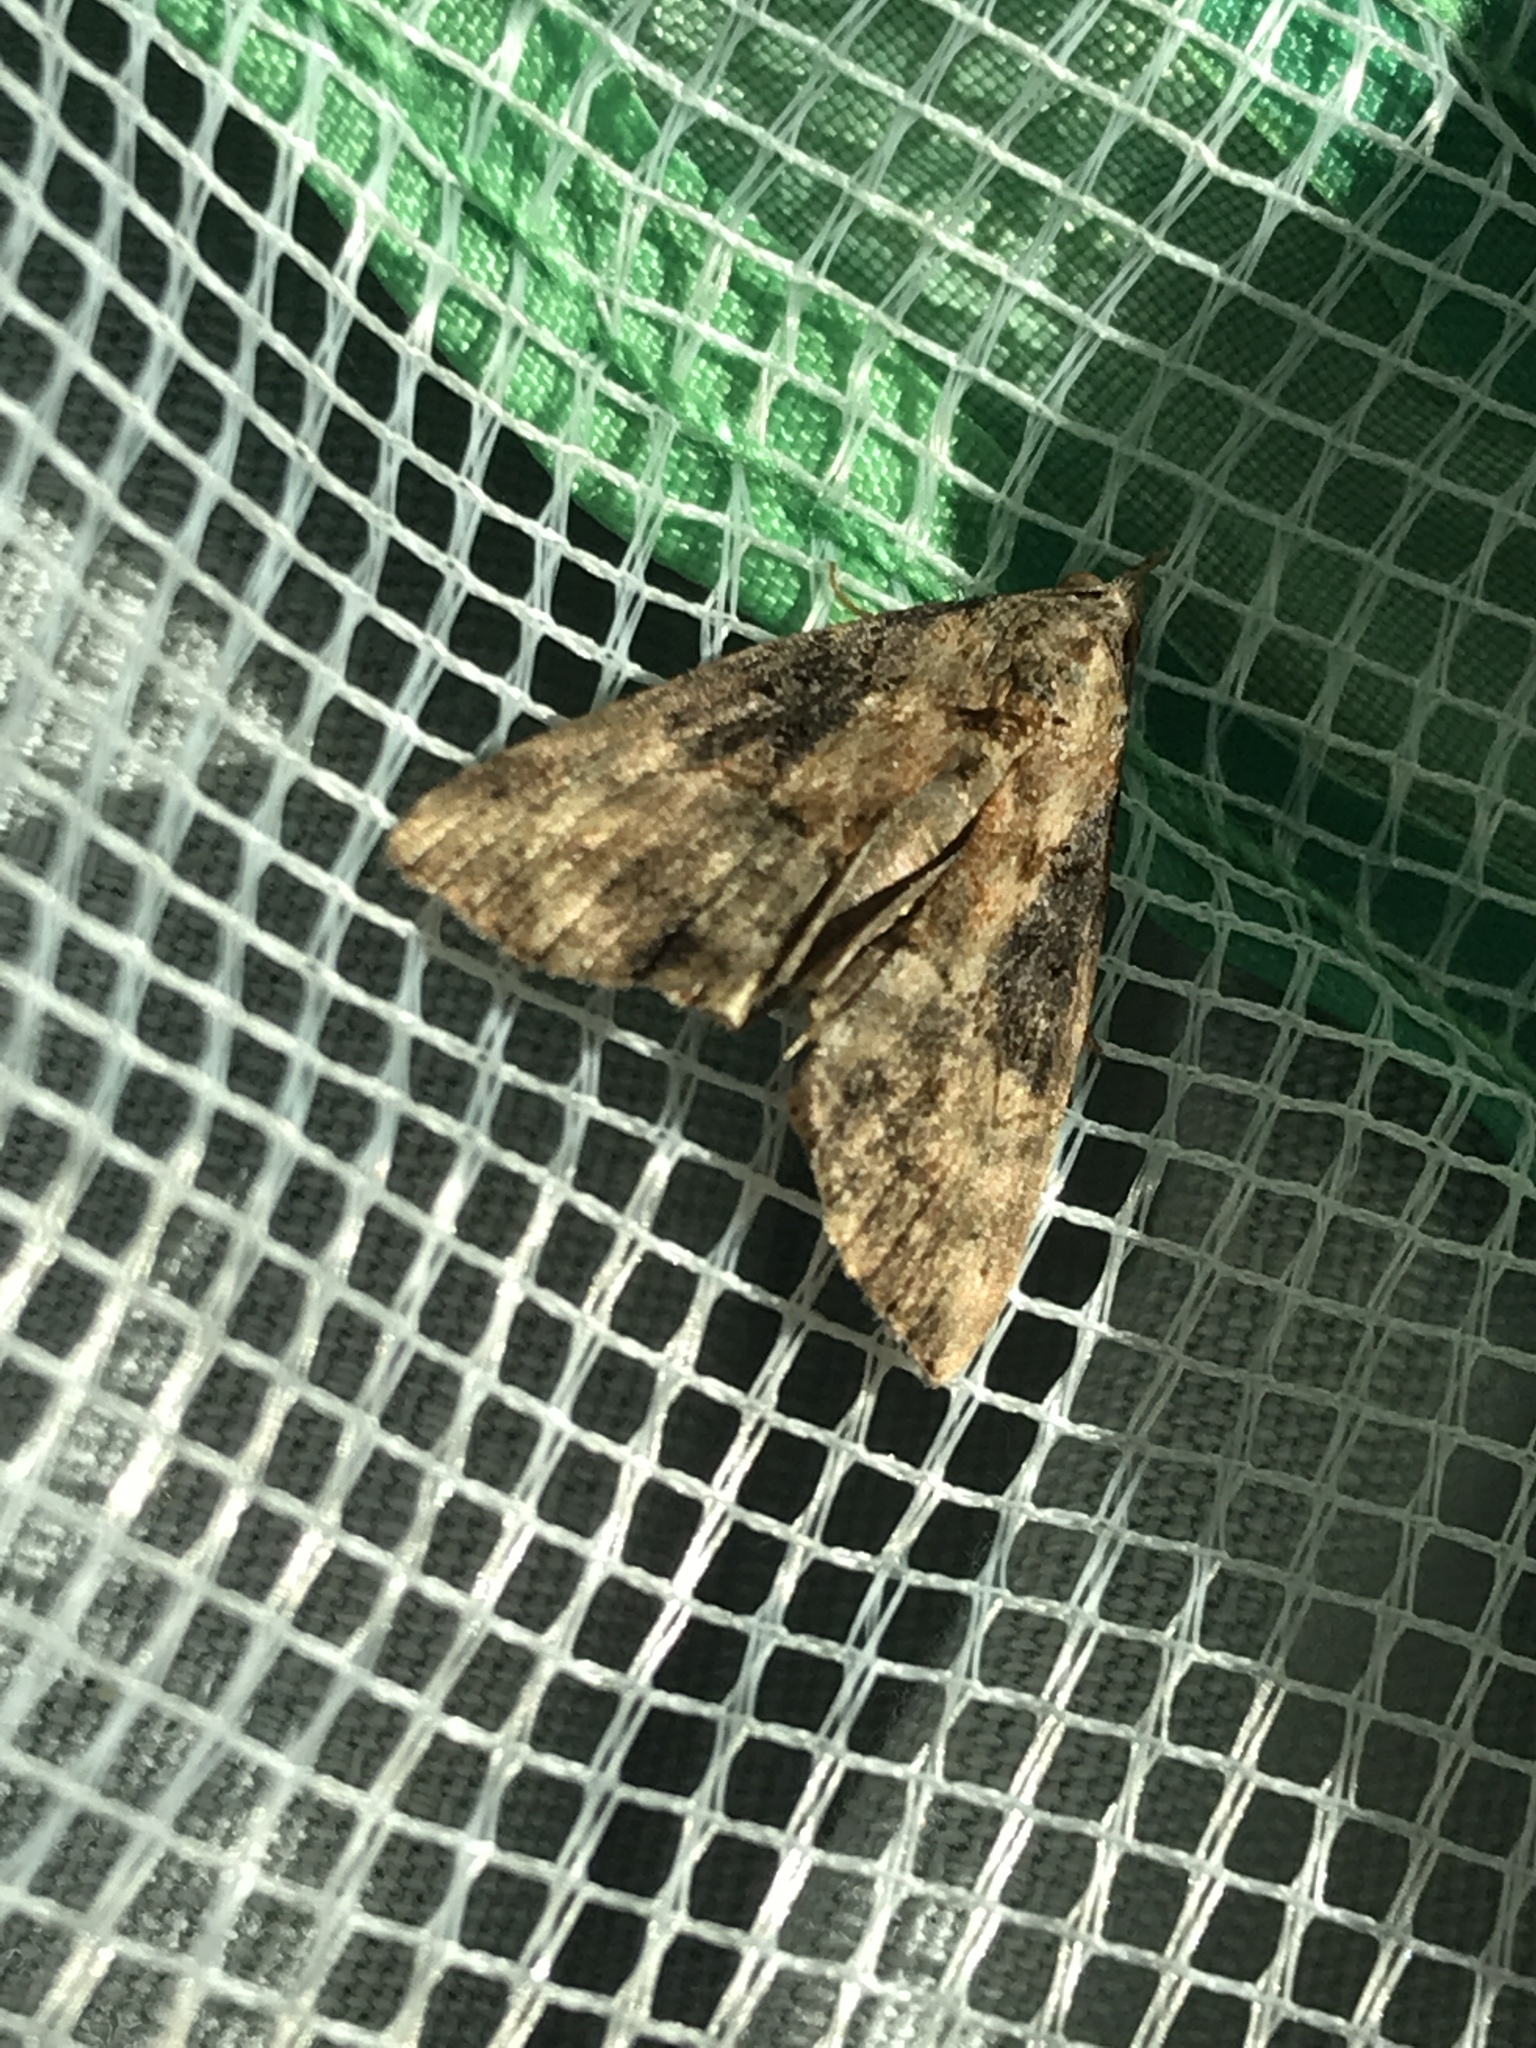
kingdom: Animalia
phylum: Arthropoda
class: Insecta
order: Lepidoptera
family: Erebidae
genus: Hypena
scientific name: Hypena scabra
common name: Green cloverworm
